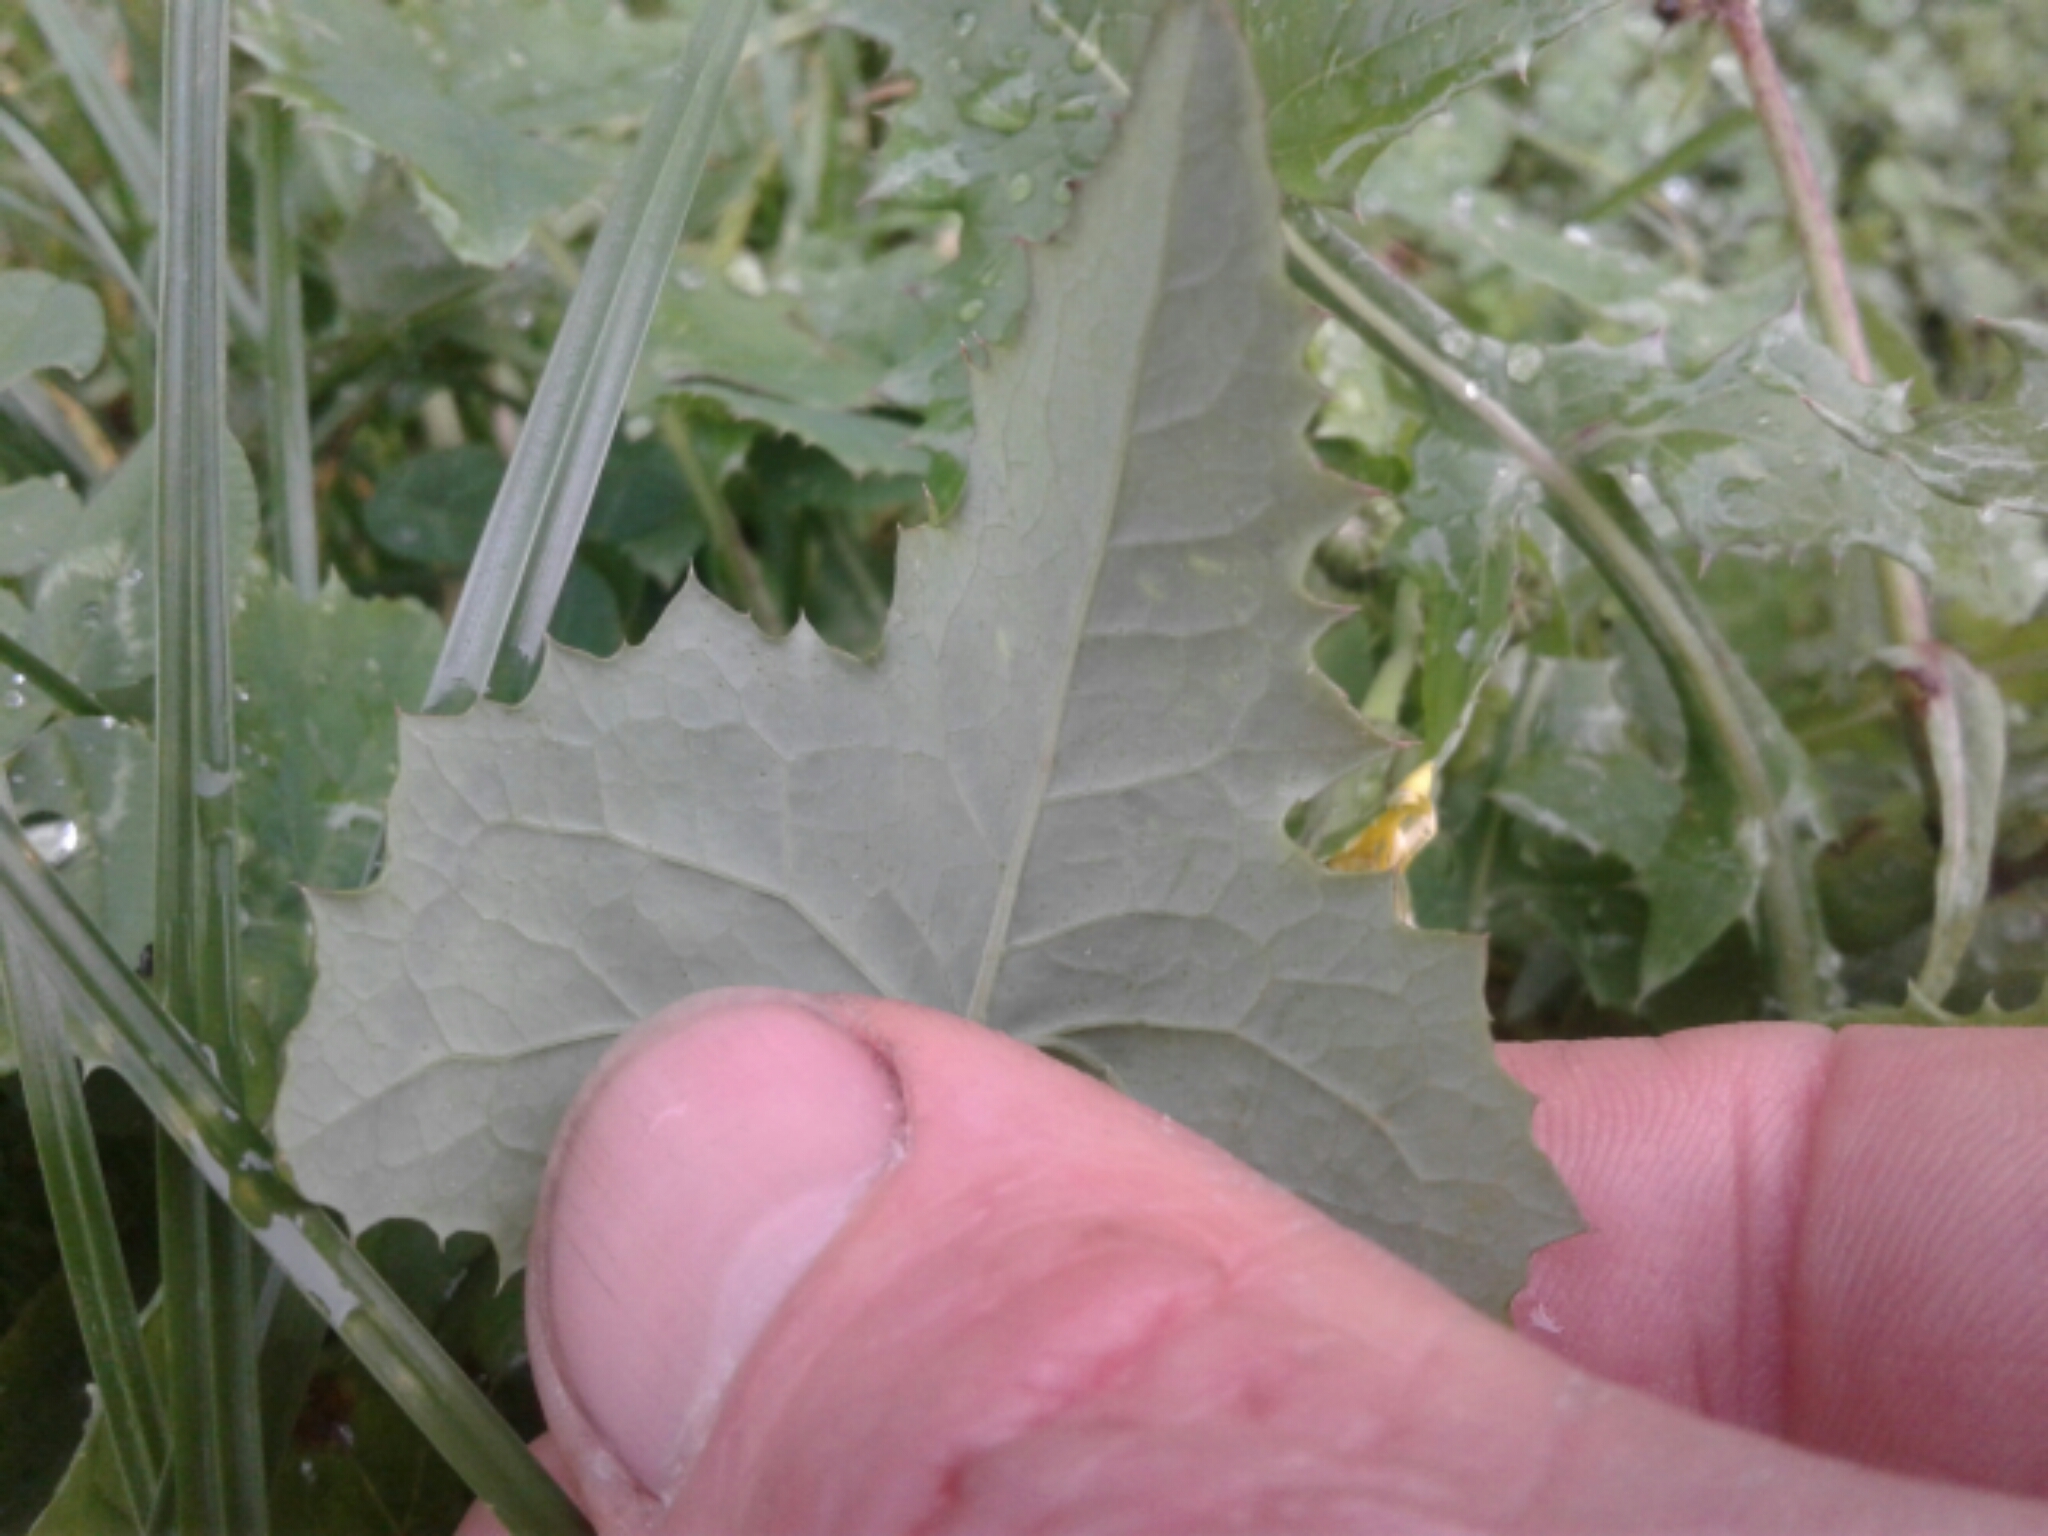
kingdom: Plantae
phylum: Tracheophyta
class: Magnoliopsida
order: Asterales
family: Asteraceae
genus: Sonchus
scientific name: Sonchus oleraceus
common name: Common sowthistle
